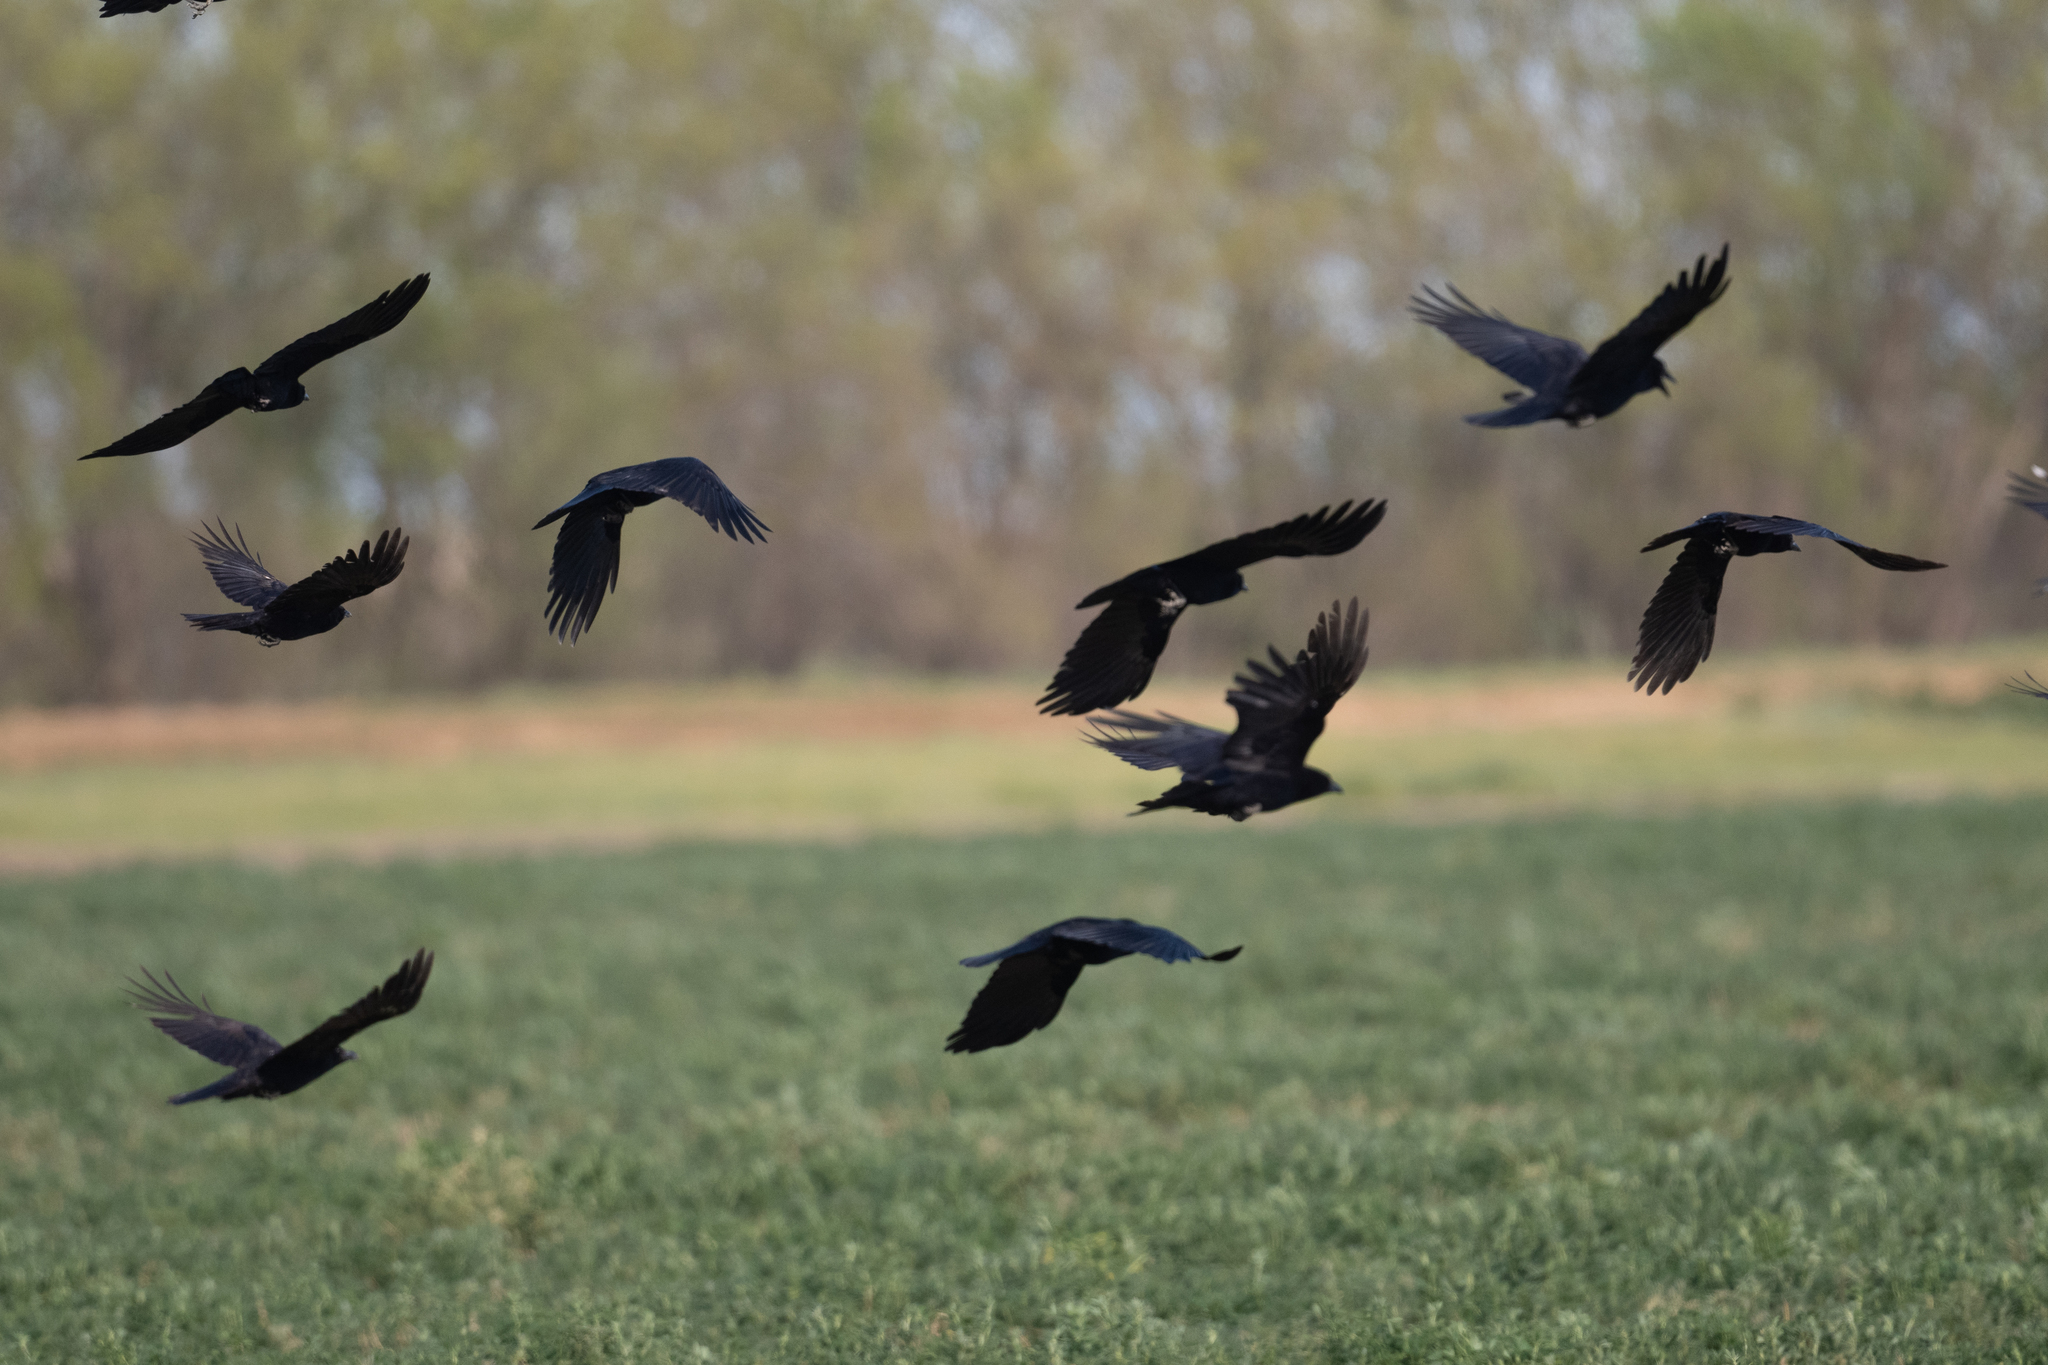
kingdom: Animalia
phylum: Chordata
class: Aves
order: Passeriformes
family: Corvidae
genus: Corvus
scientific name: Corvus brachyrhynchos
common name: American crow
